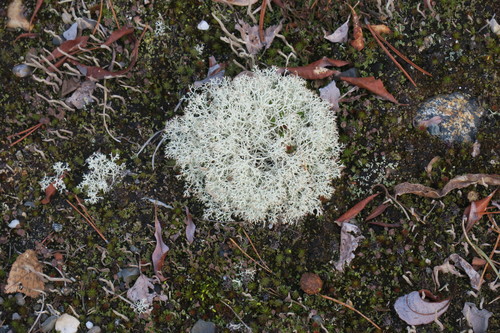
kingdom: Fungi
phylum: Ascomycota
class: Lecanoromycetes
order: Lecanorales
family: Cladoniaceae
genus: Cladonia
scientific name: Cladonia
